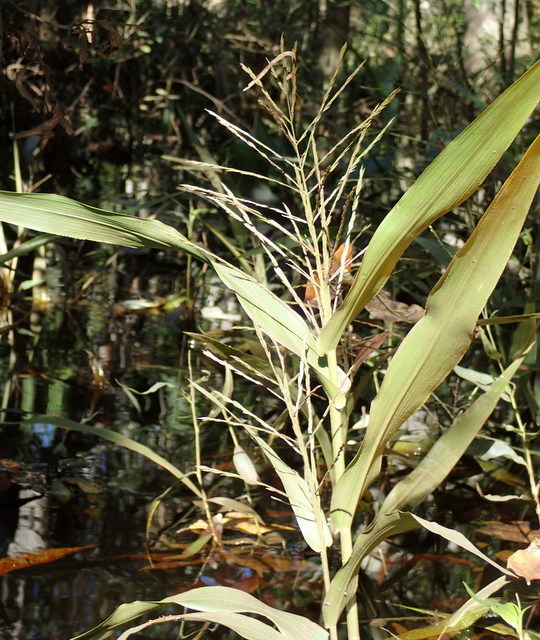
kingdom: Plantae
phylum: Tracheophyta
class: Liliopsida
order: Poales
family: Poaceae
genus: Panicum
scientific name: Panicum gymnocarpon
